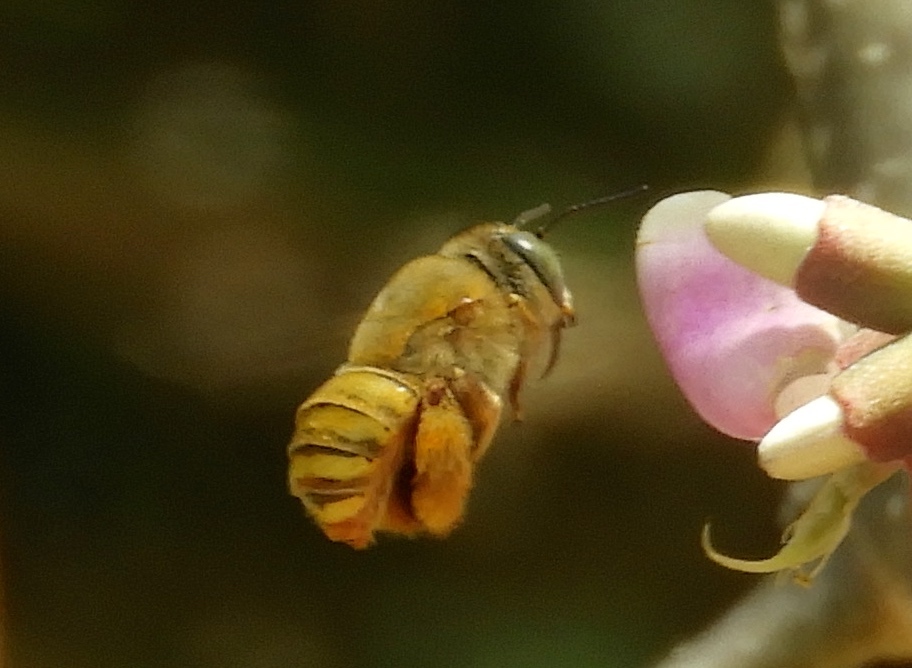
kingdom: Animalia
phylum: Arthropoda
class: Insecta
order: Hymenoptera
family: Apidae
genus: Centris
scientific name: Centris
